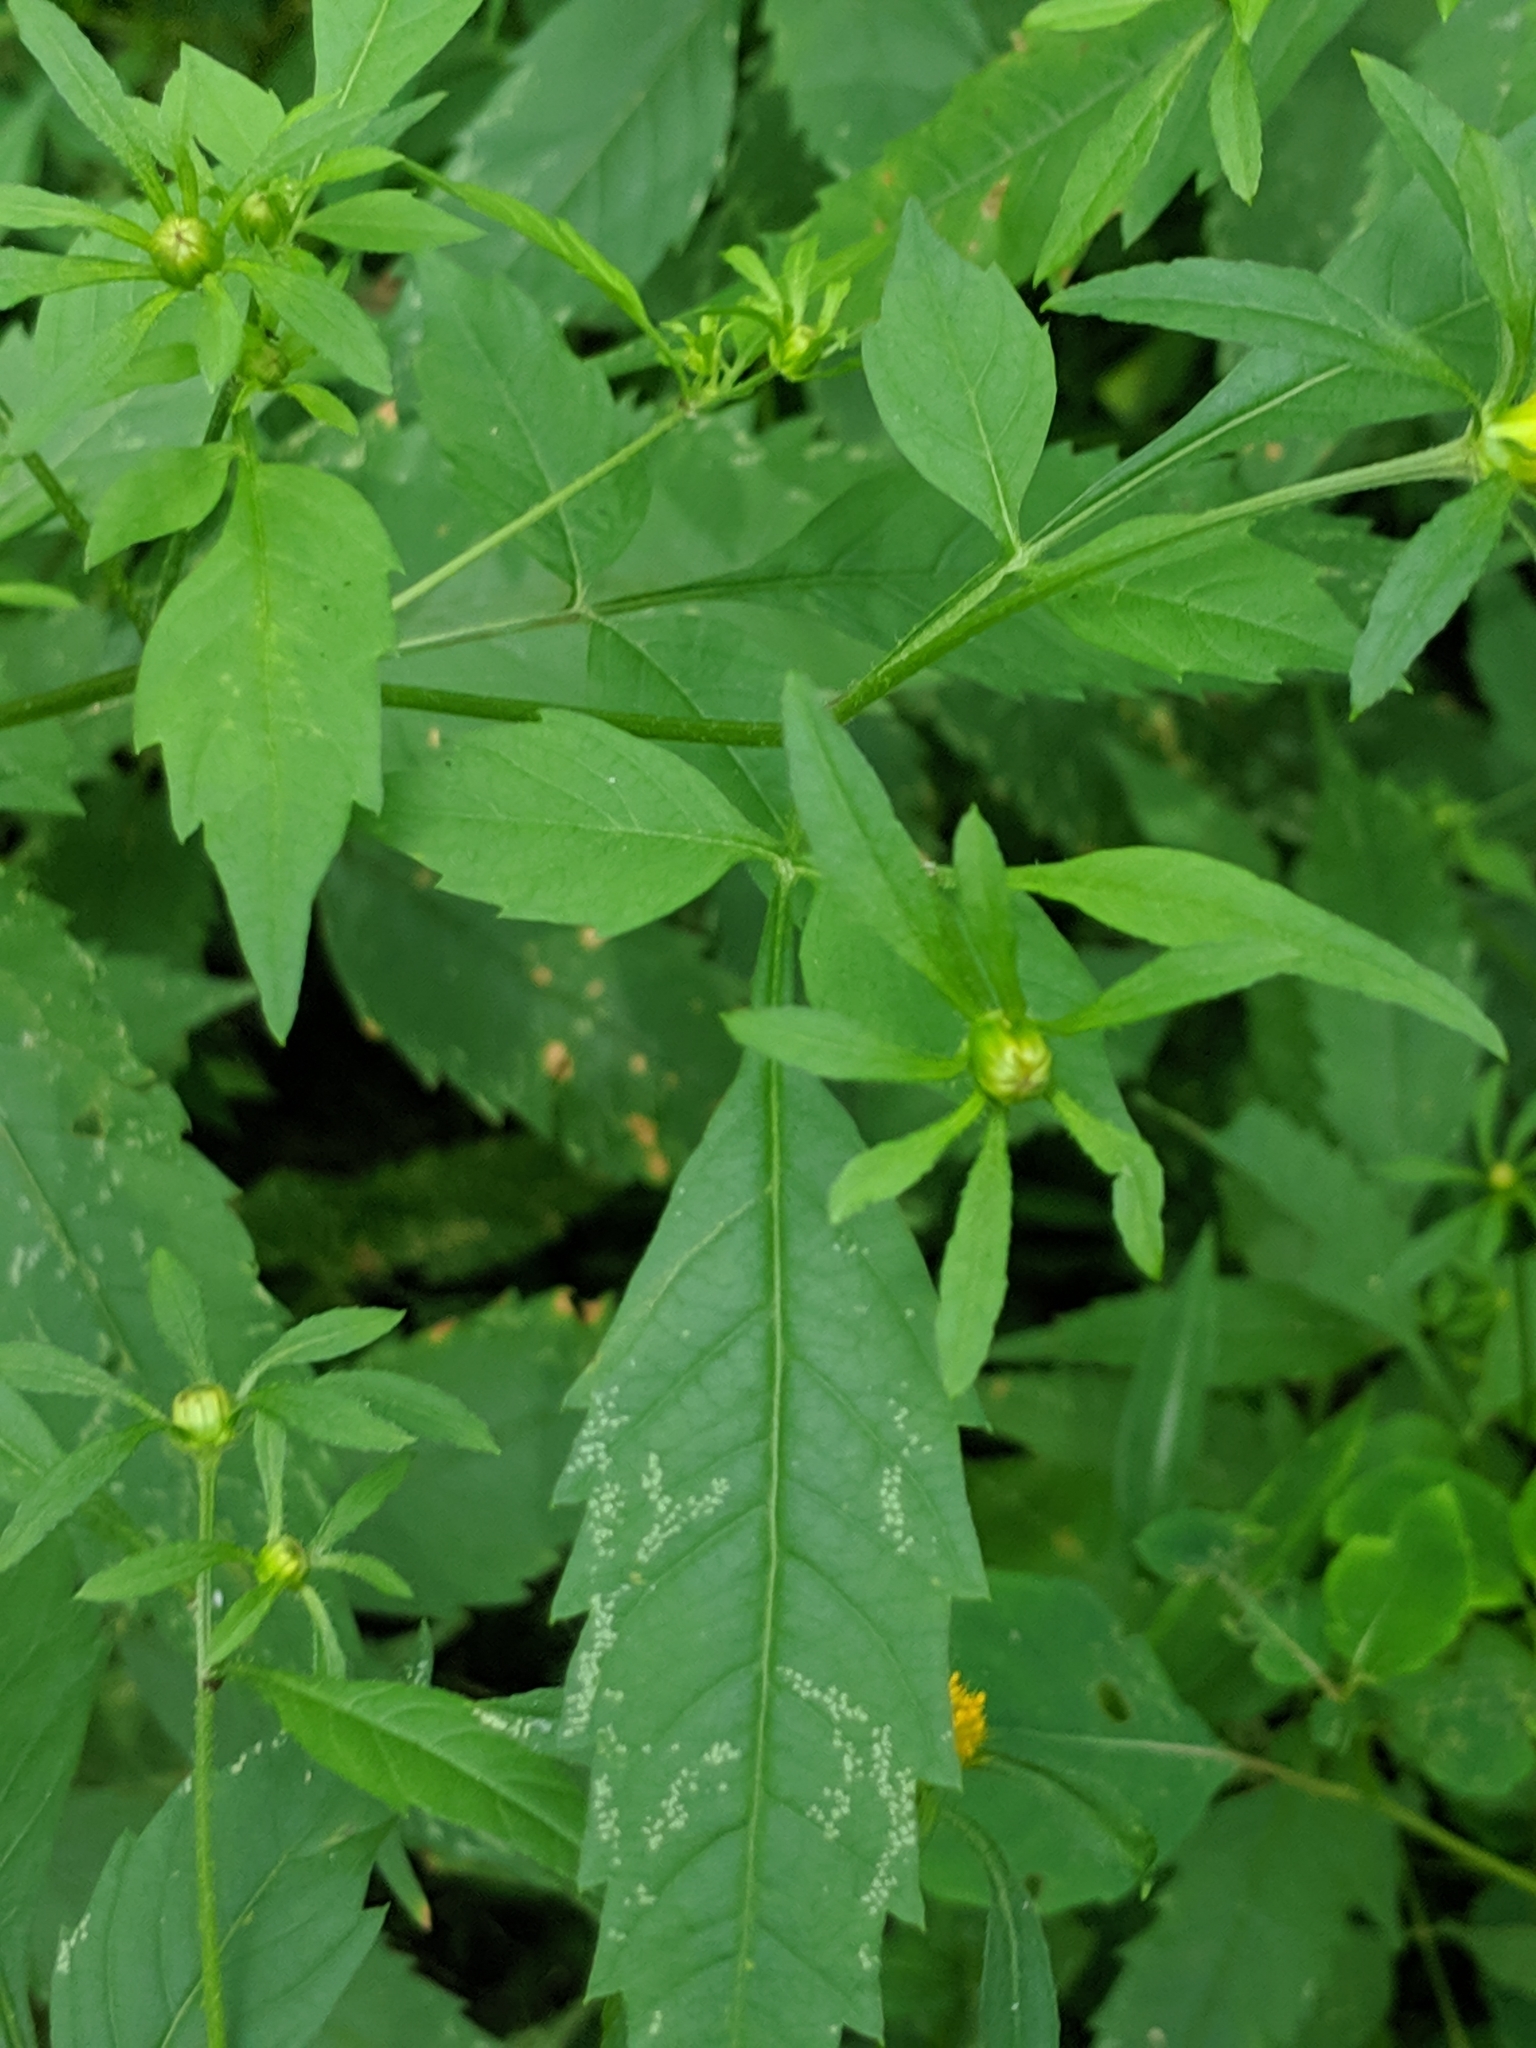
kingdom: Plantae
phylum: Tracheophyta
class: Magnoliopsida
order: Asterales
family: Asteraceae
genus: Bidens
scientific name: Bidens frondosa
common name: Beggarticks
